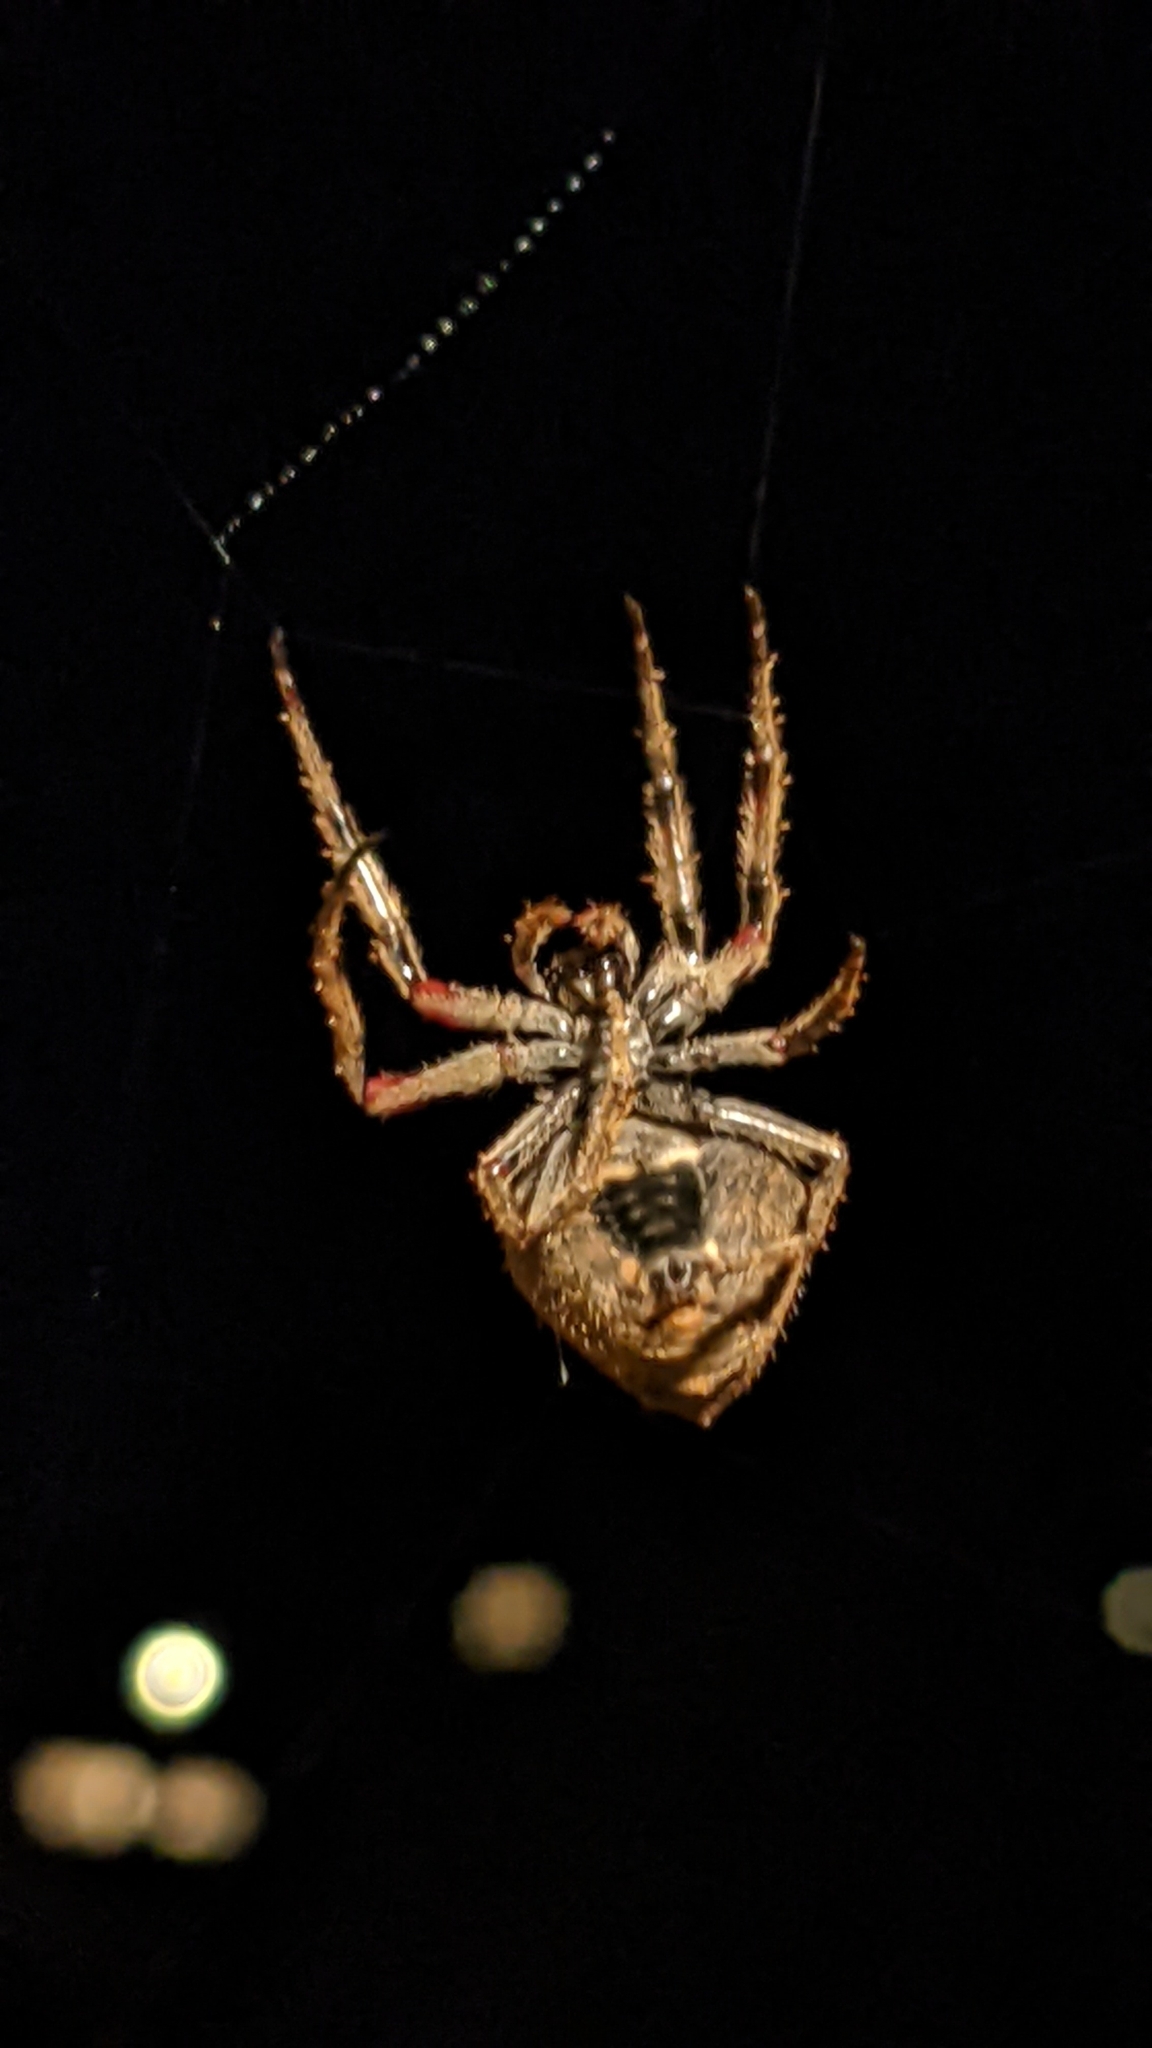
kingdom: Animalia
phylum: Arthropoda
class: Arachnida
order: Araneae
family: Araneidae
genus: Eriophora
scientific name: Eriophora pustulosa
